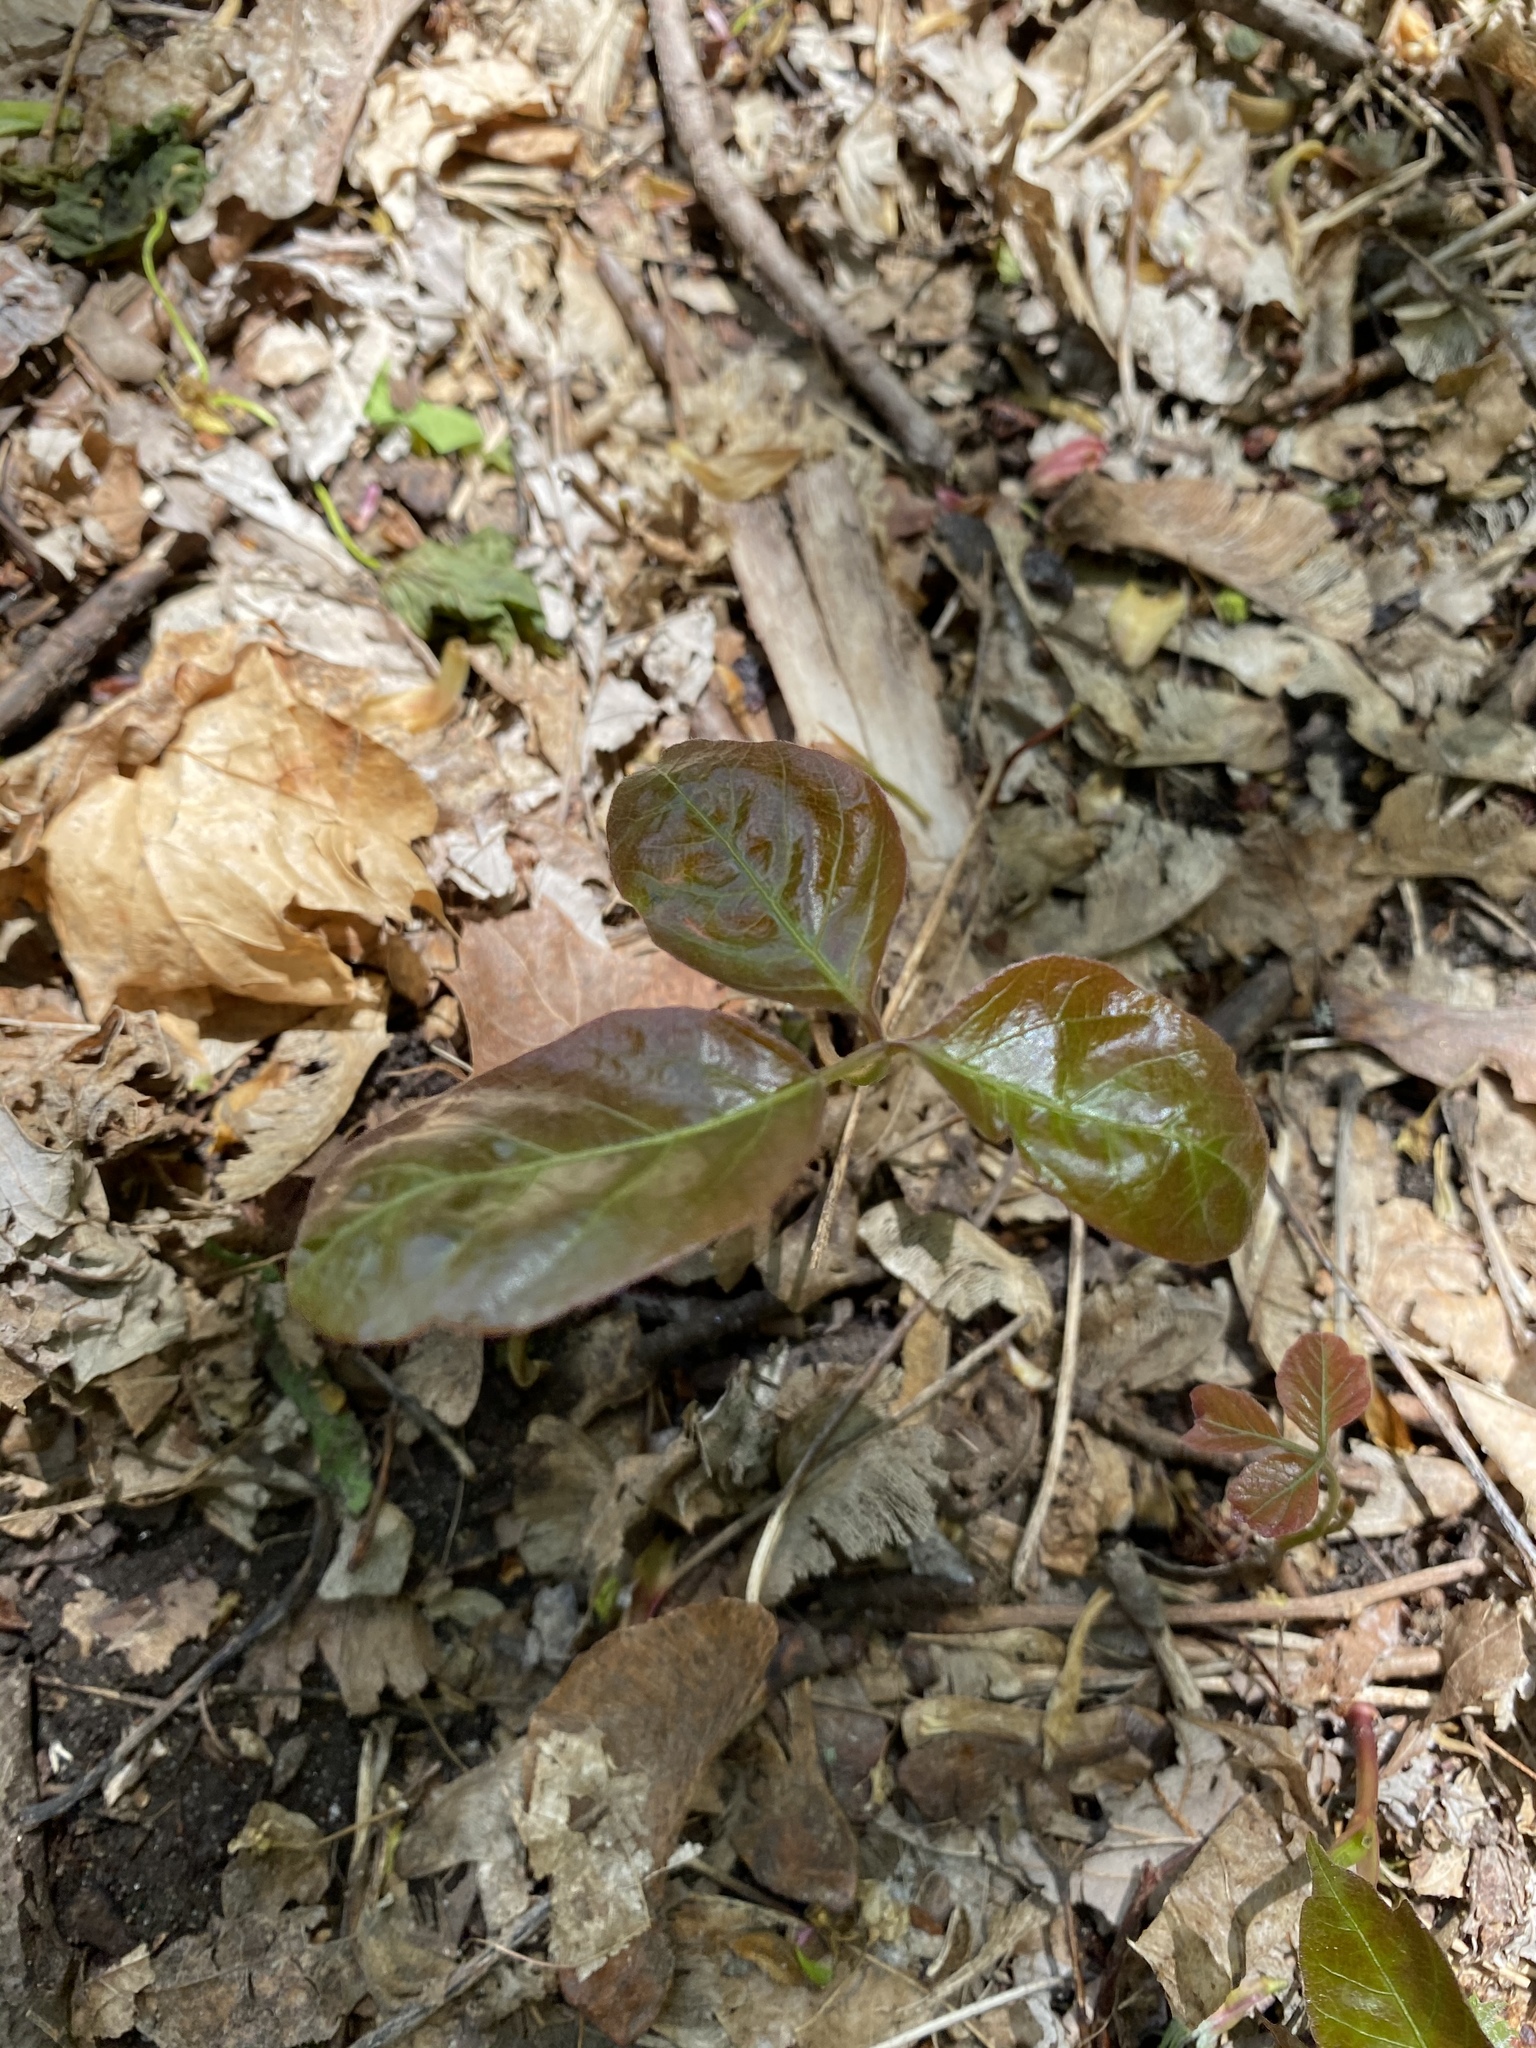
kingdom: Plantae
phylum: Tracheophyta
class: Magnoliopsida
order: Ericales
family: Ericaceae
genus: Gaultheria
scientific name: Gaultheria procumbens
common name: Checkerberry
